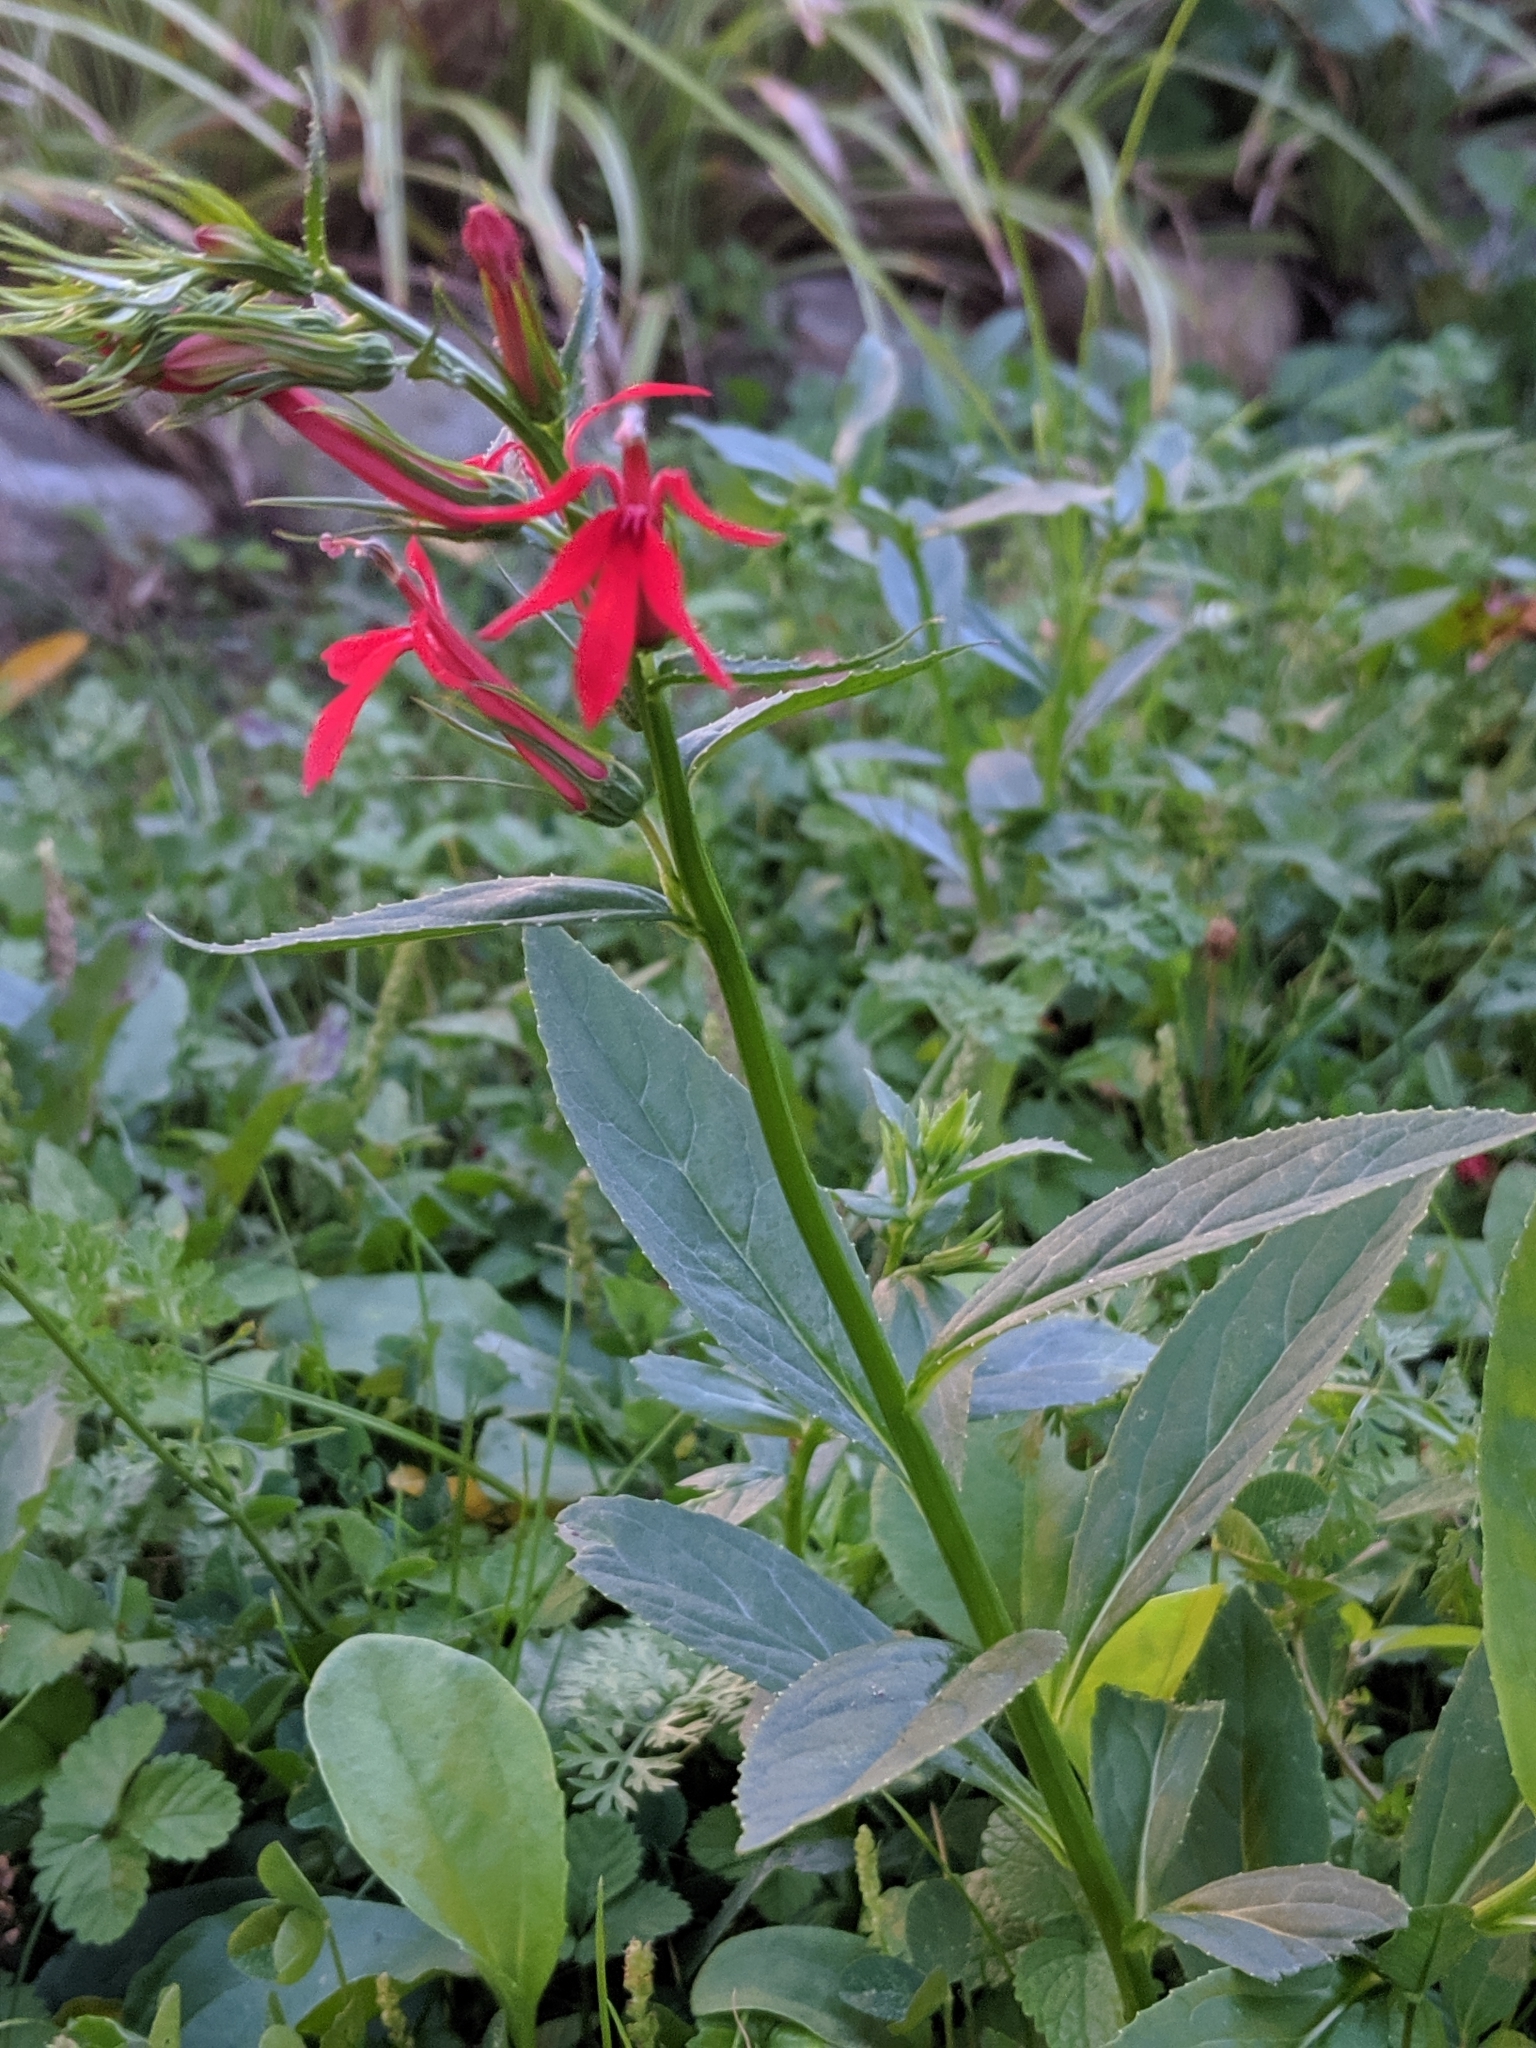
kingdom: Plantae
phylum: Tracheophyta
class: Magnoliopsida
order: Asterales
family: Campanulaceae
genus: Lobelia
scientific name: Lobelia cardinalis
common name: Cardinal flower
